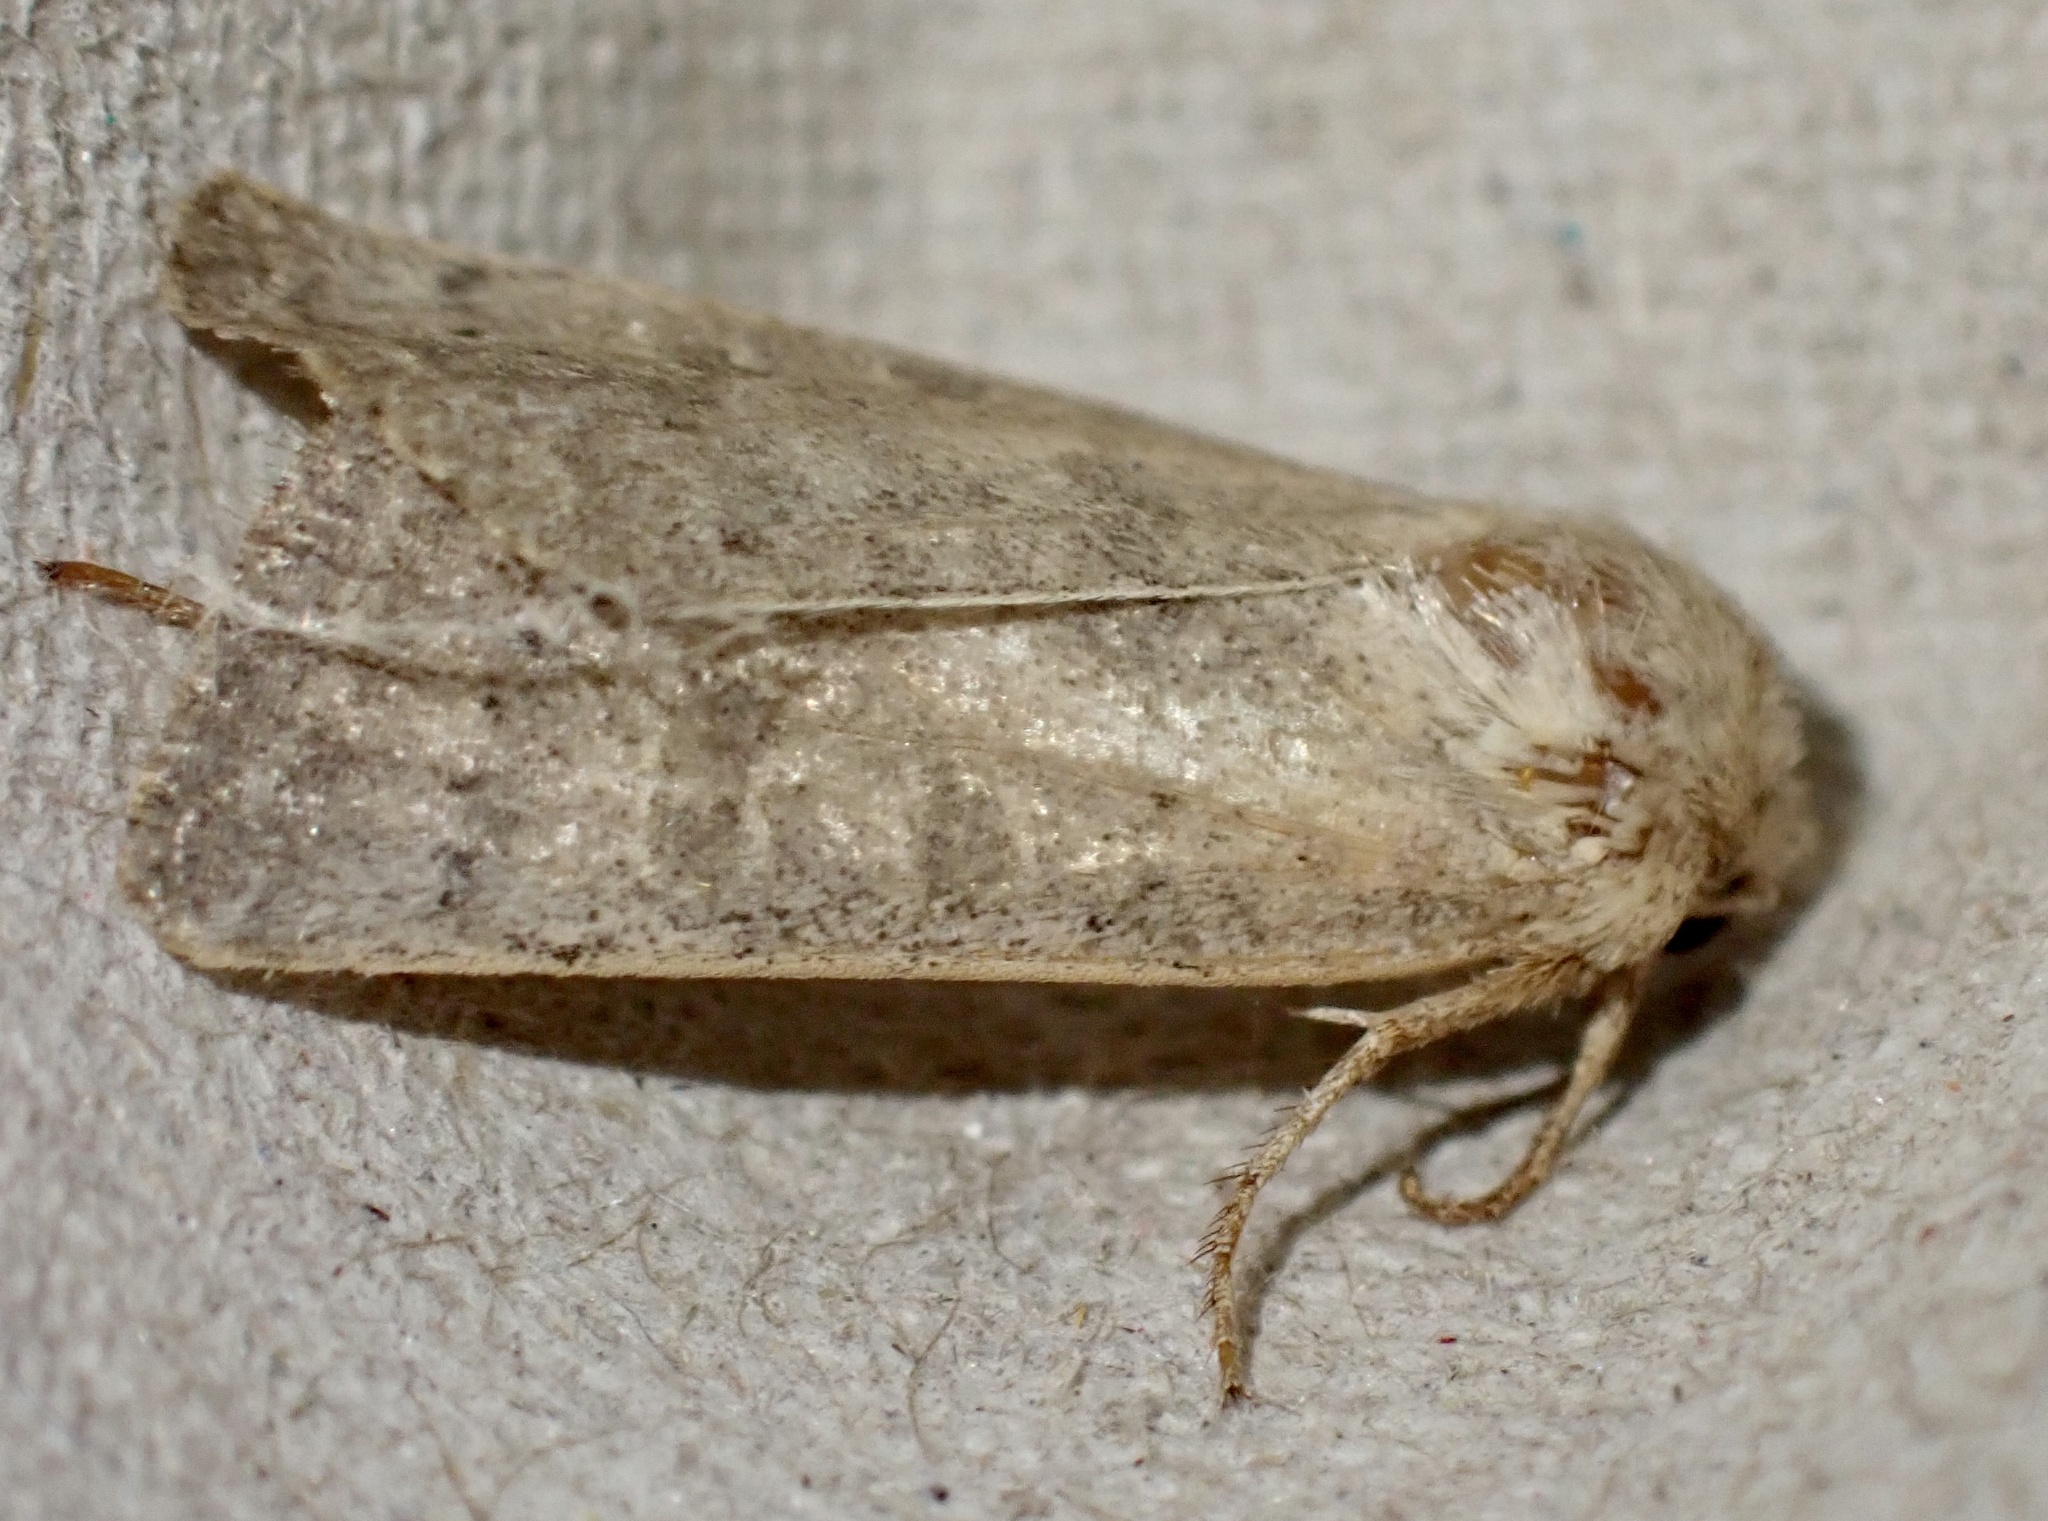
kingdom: Animalia
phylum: Arthropoda
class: Insecta
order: Lepidoptera
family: Noctuidae
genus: Hoplodrina
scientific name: Hoplodrina ambigua
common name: Vine's rustic
